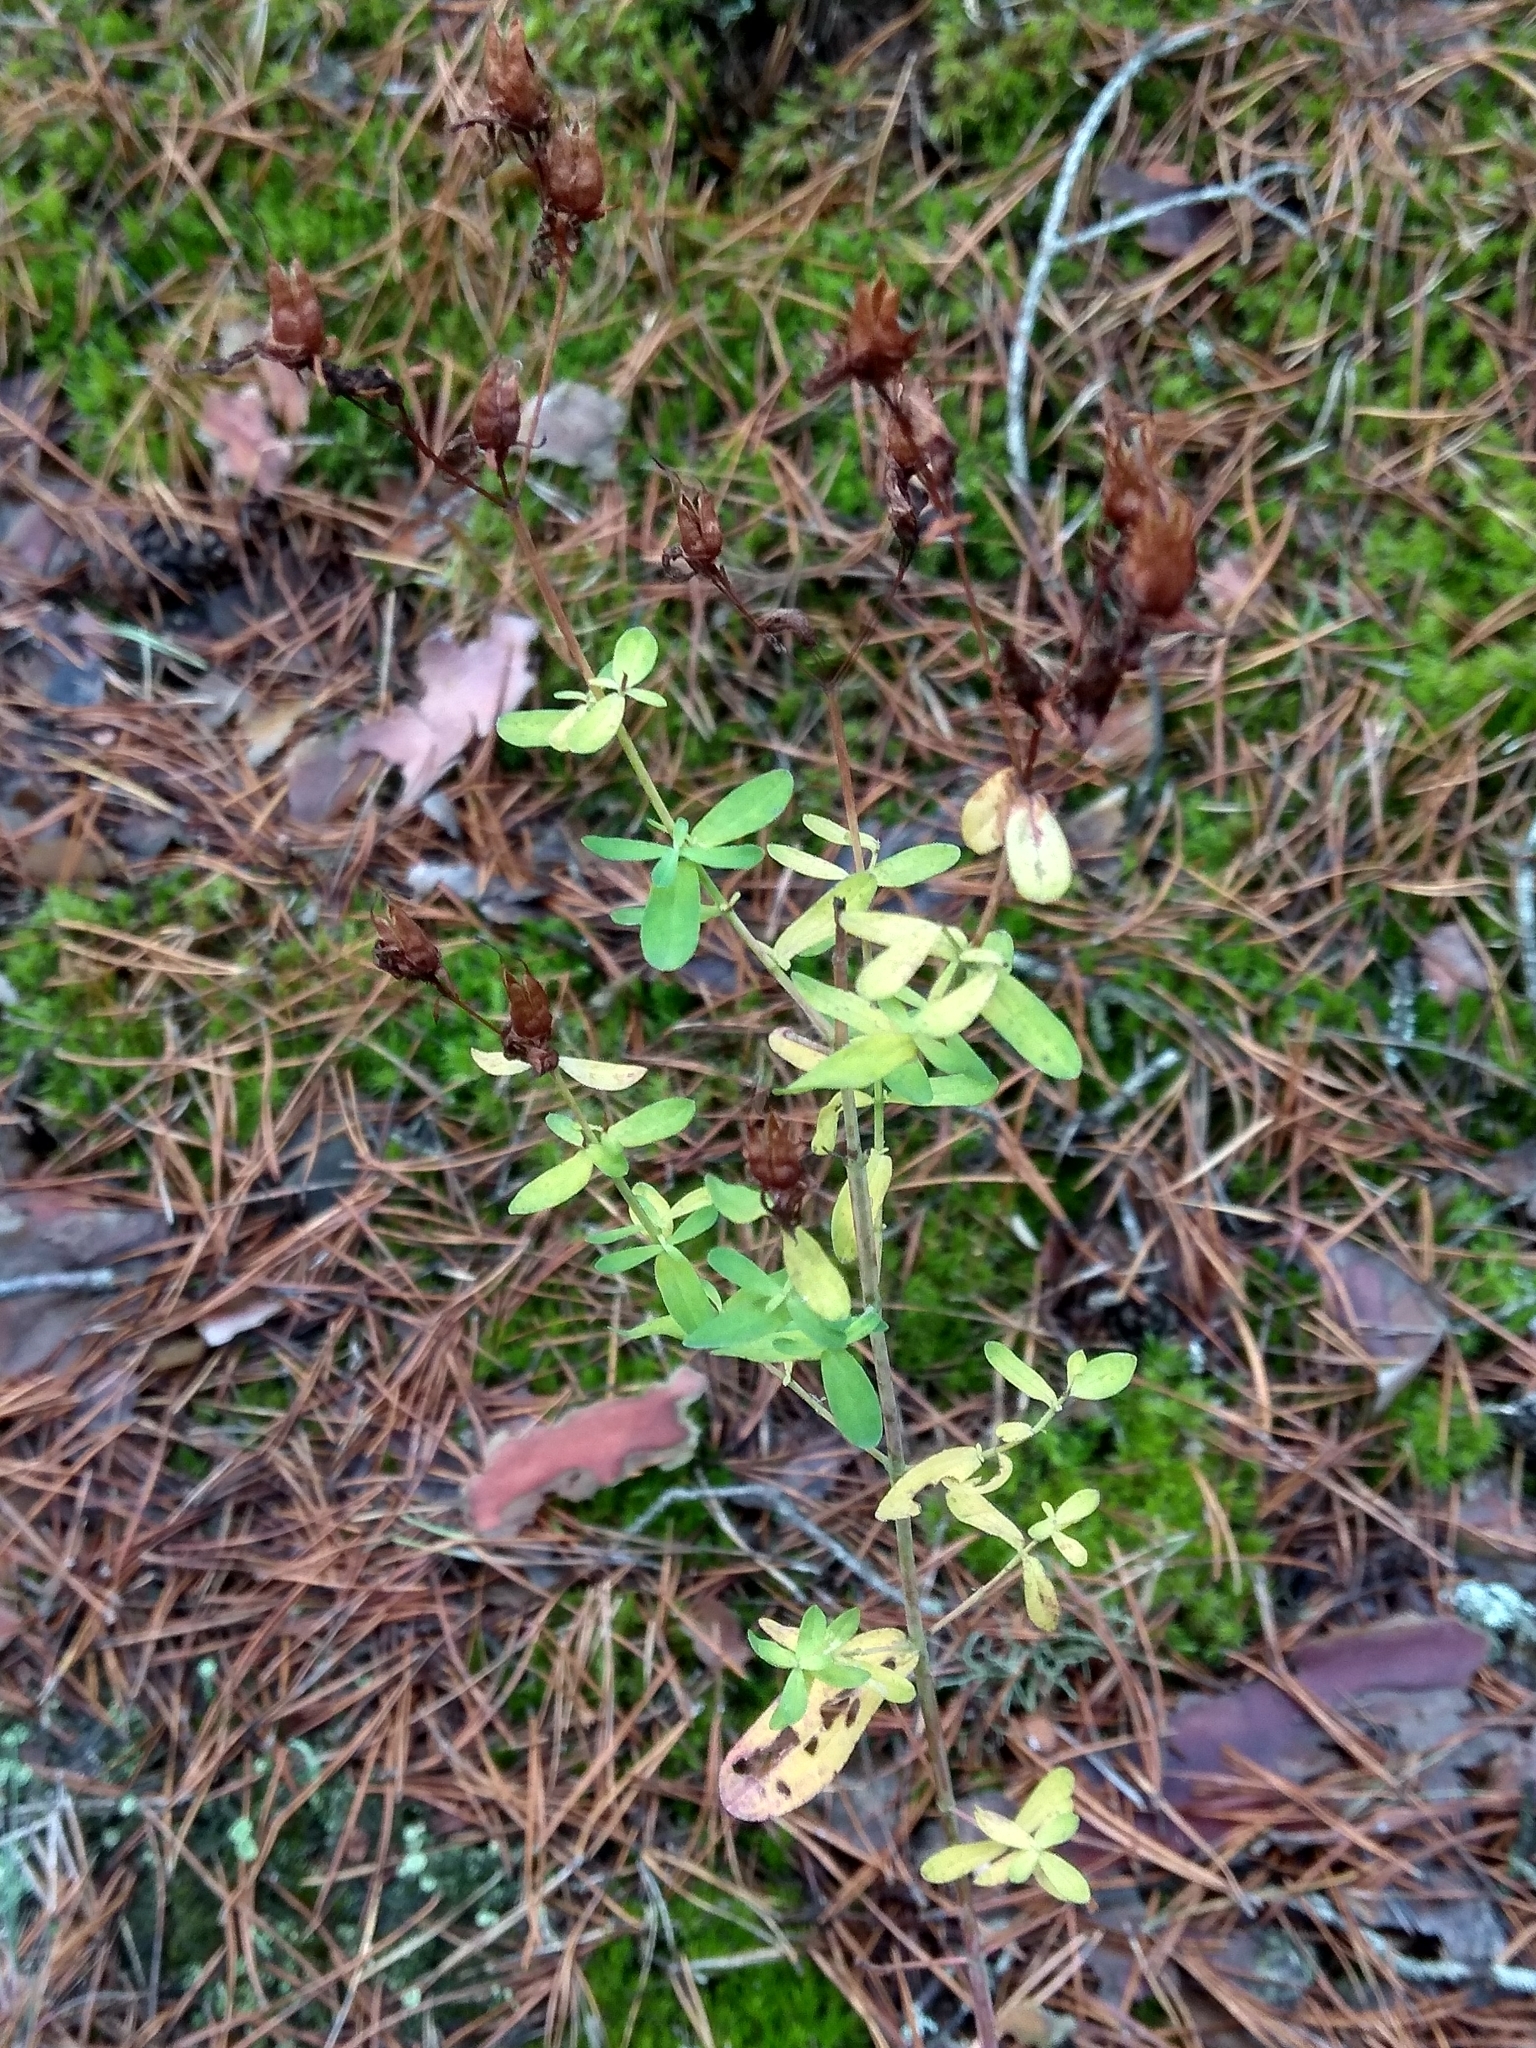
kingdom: Plantae
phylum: Tracheophyta
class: Magnoliopsida
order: Malpighiales
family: Hypericaceae
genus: Hypericum
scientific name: Hypericum perforatum
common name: Common st. johnswort
